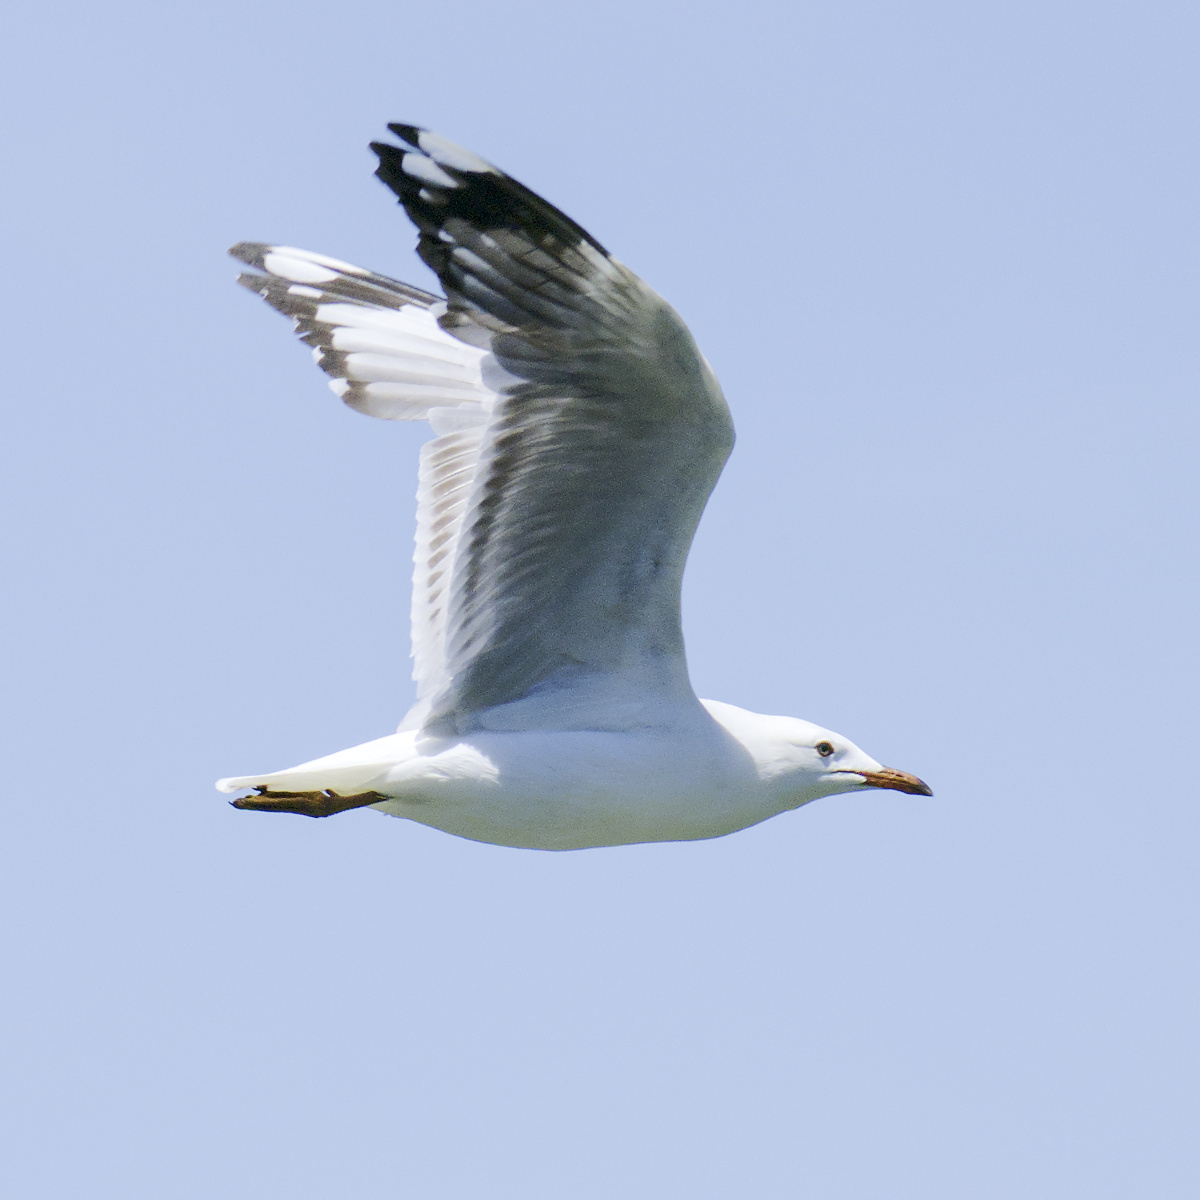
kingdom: Animalia
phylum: Chordata
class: Aves
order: Charadriiformes
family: Laridae
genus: Chroicocephalus
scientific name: Chroicocephalus novaehollandiae
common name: Silver gull
